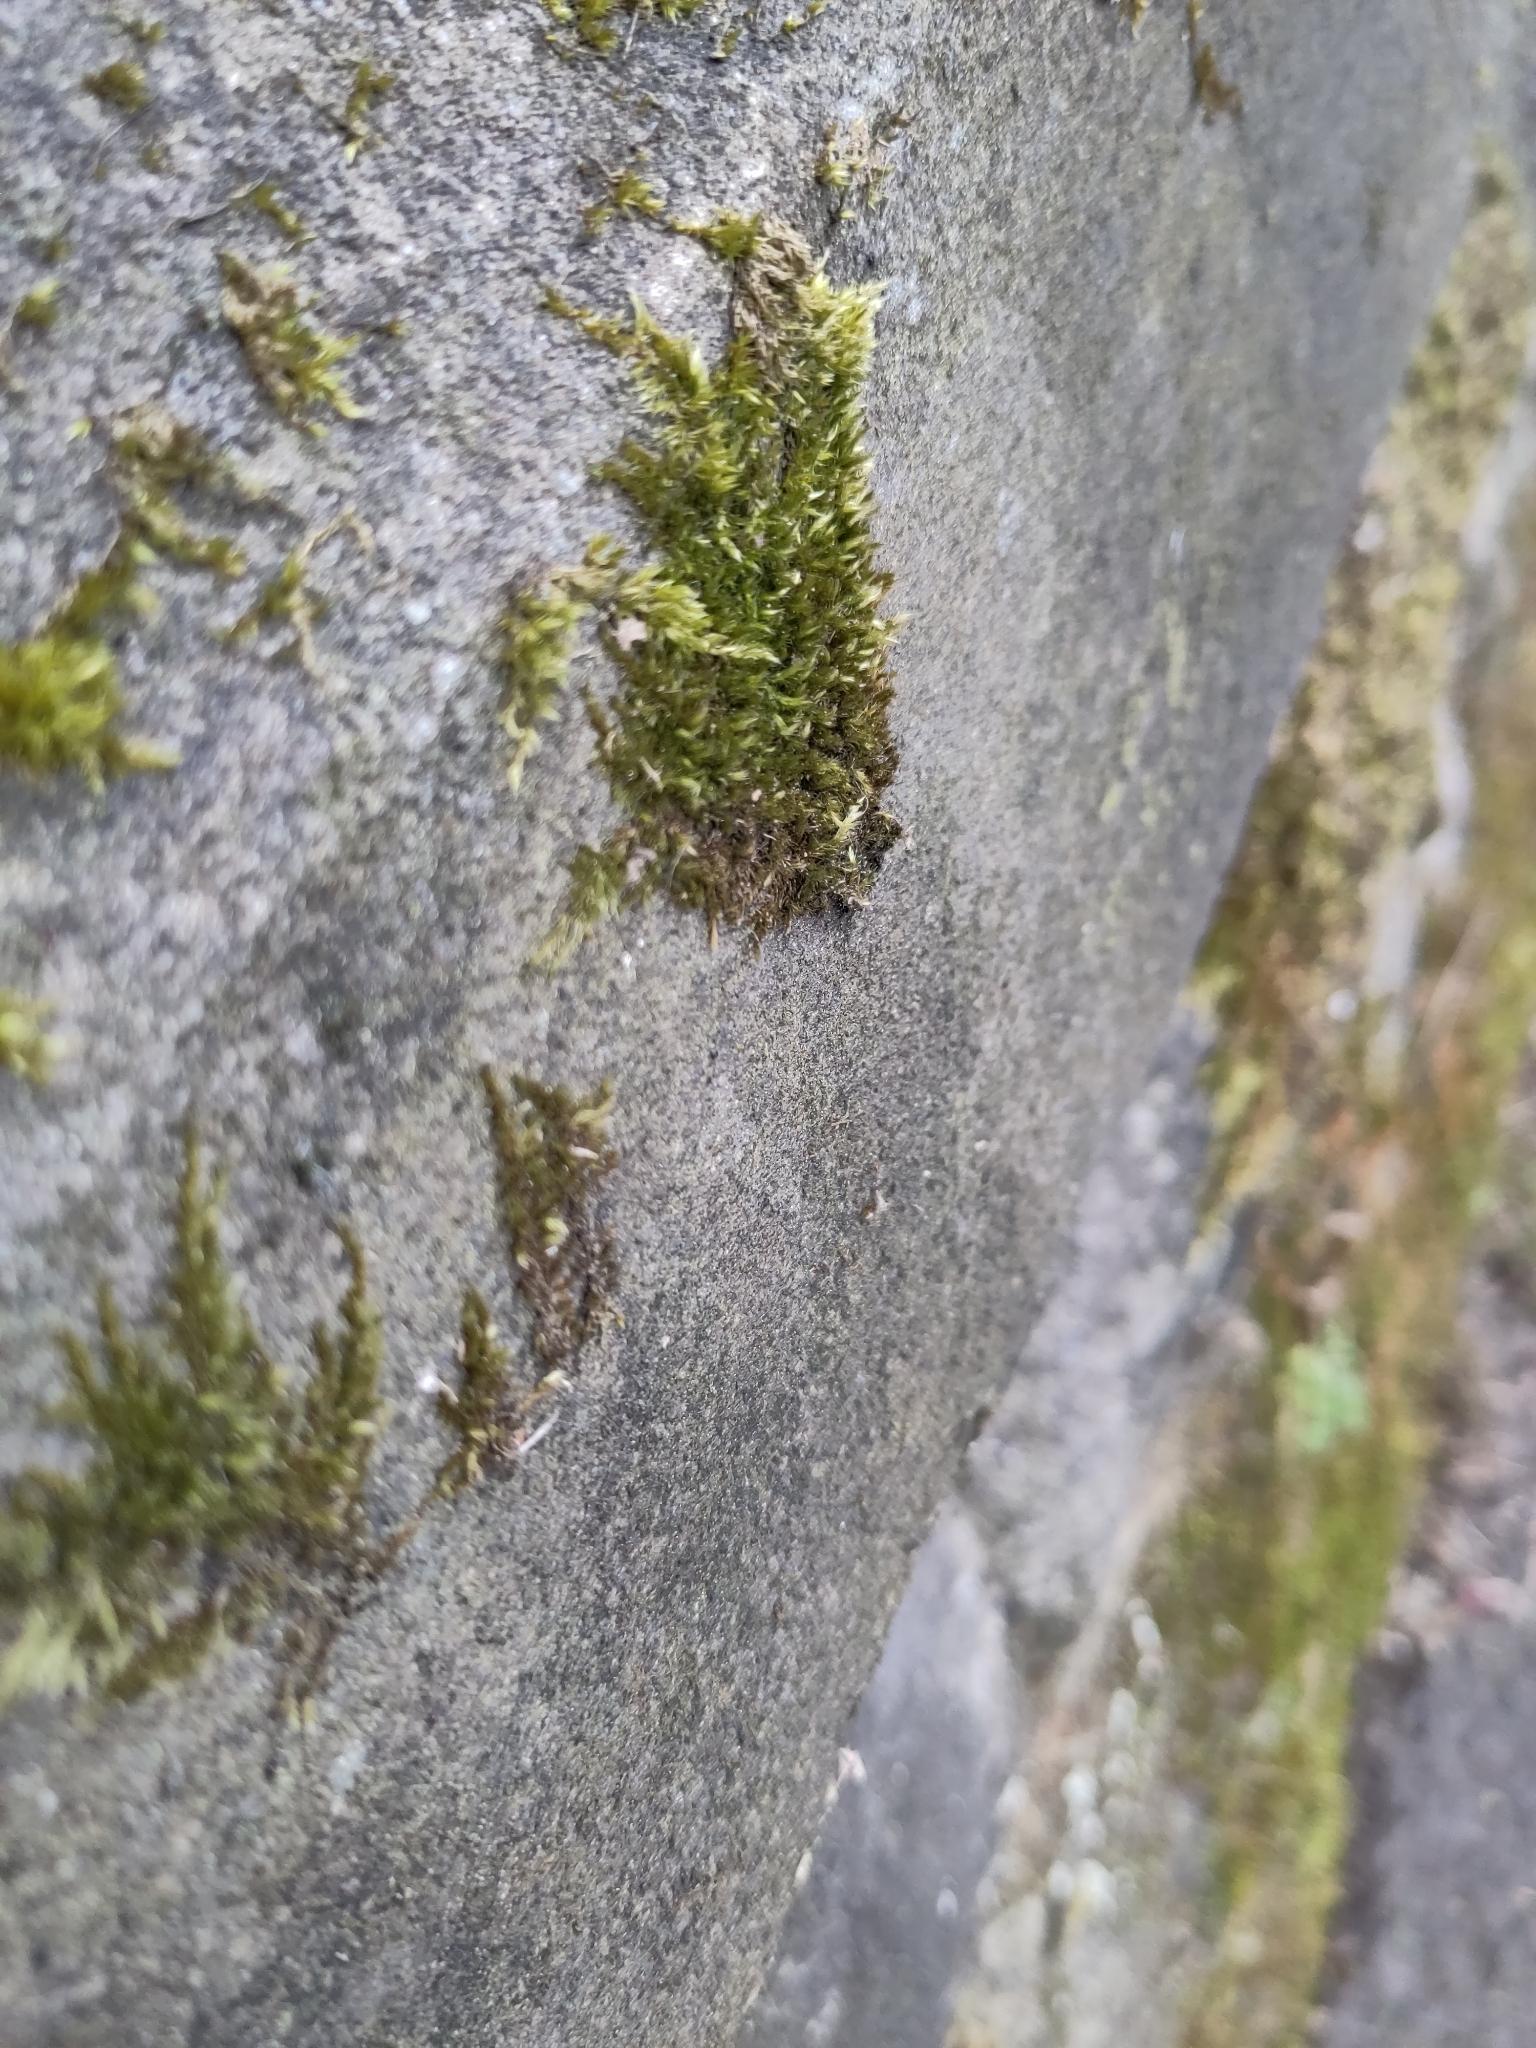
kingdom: Plantae
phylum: Bryophyta
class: Bryopsida
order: Hypnales
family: Brachytheciaceae
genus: Homalothecium
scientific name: Homalothecium sericeum
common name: Silky wall feather-moss
